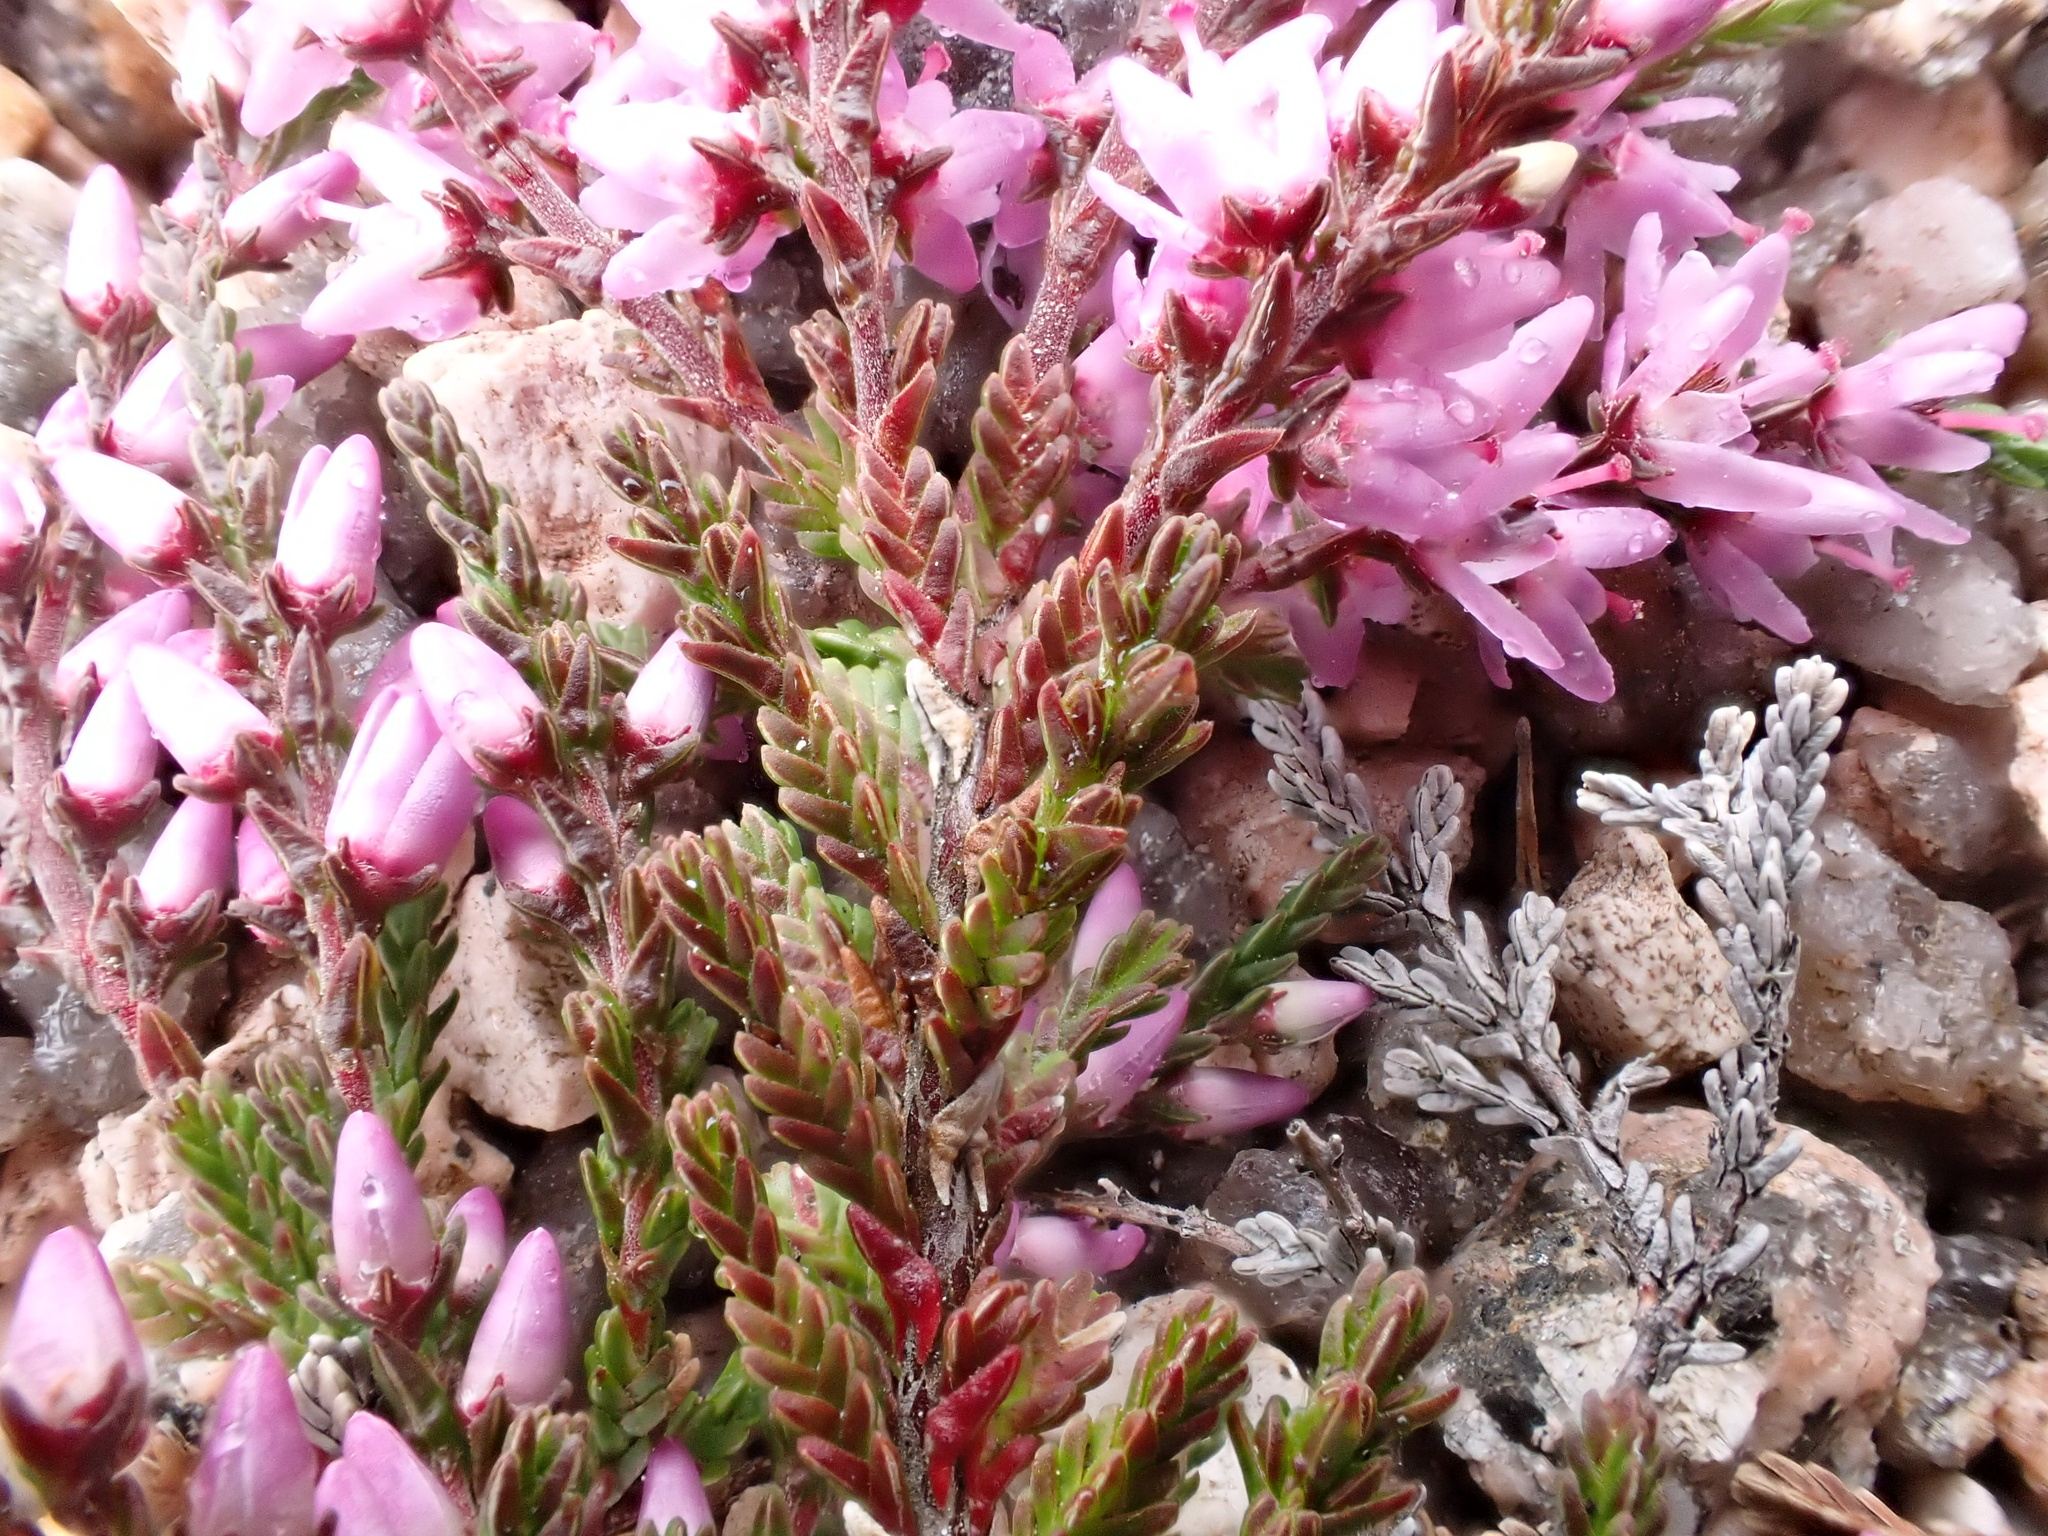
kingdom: Plantae
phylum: Tracheophyta
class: Magnoliopsida
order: Ericales
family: Ericaceae
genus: Calluna
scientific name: Calluna vulgaris
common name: Heather
